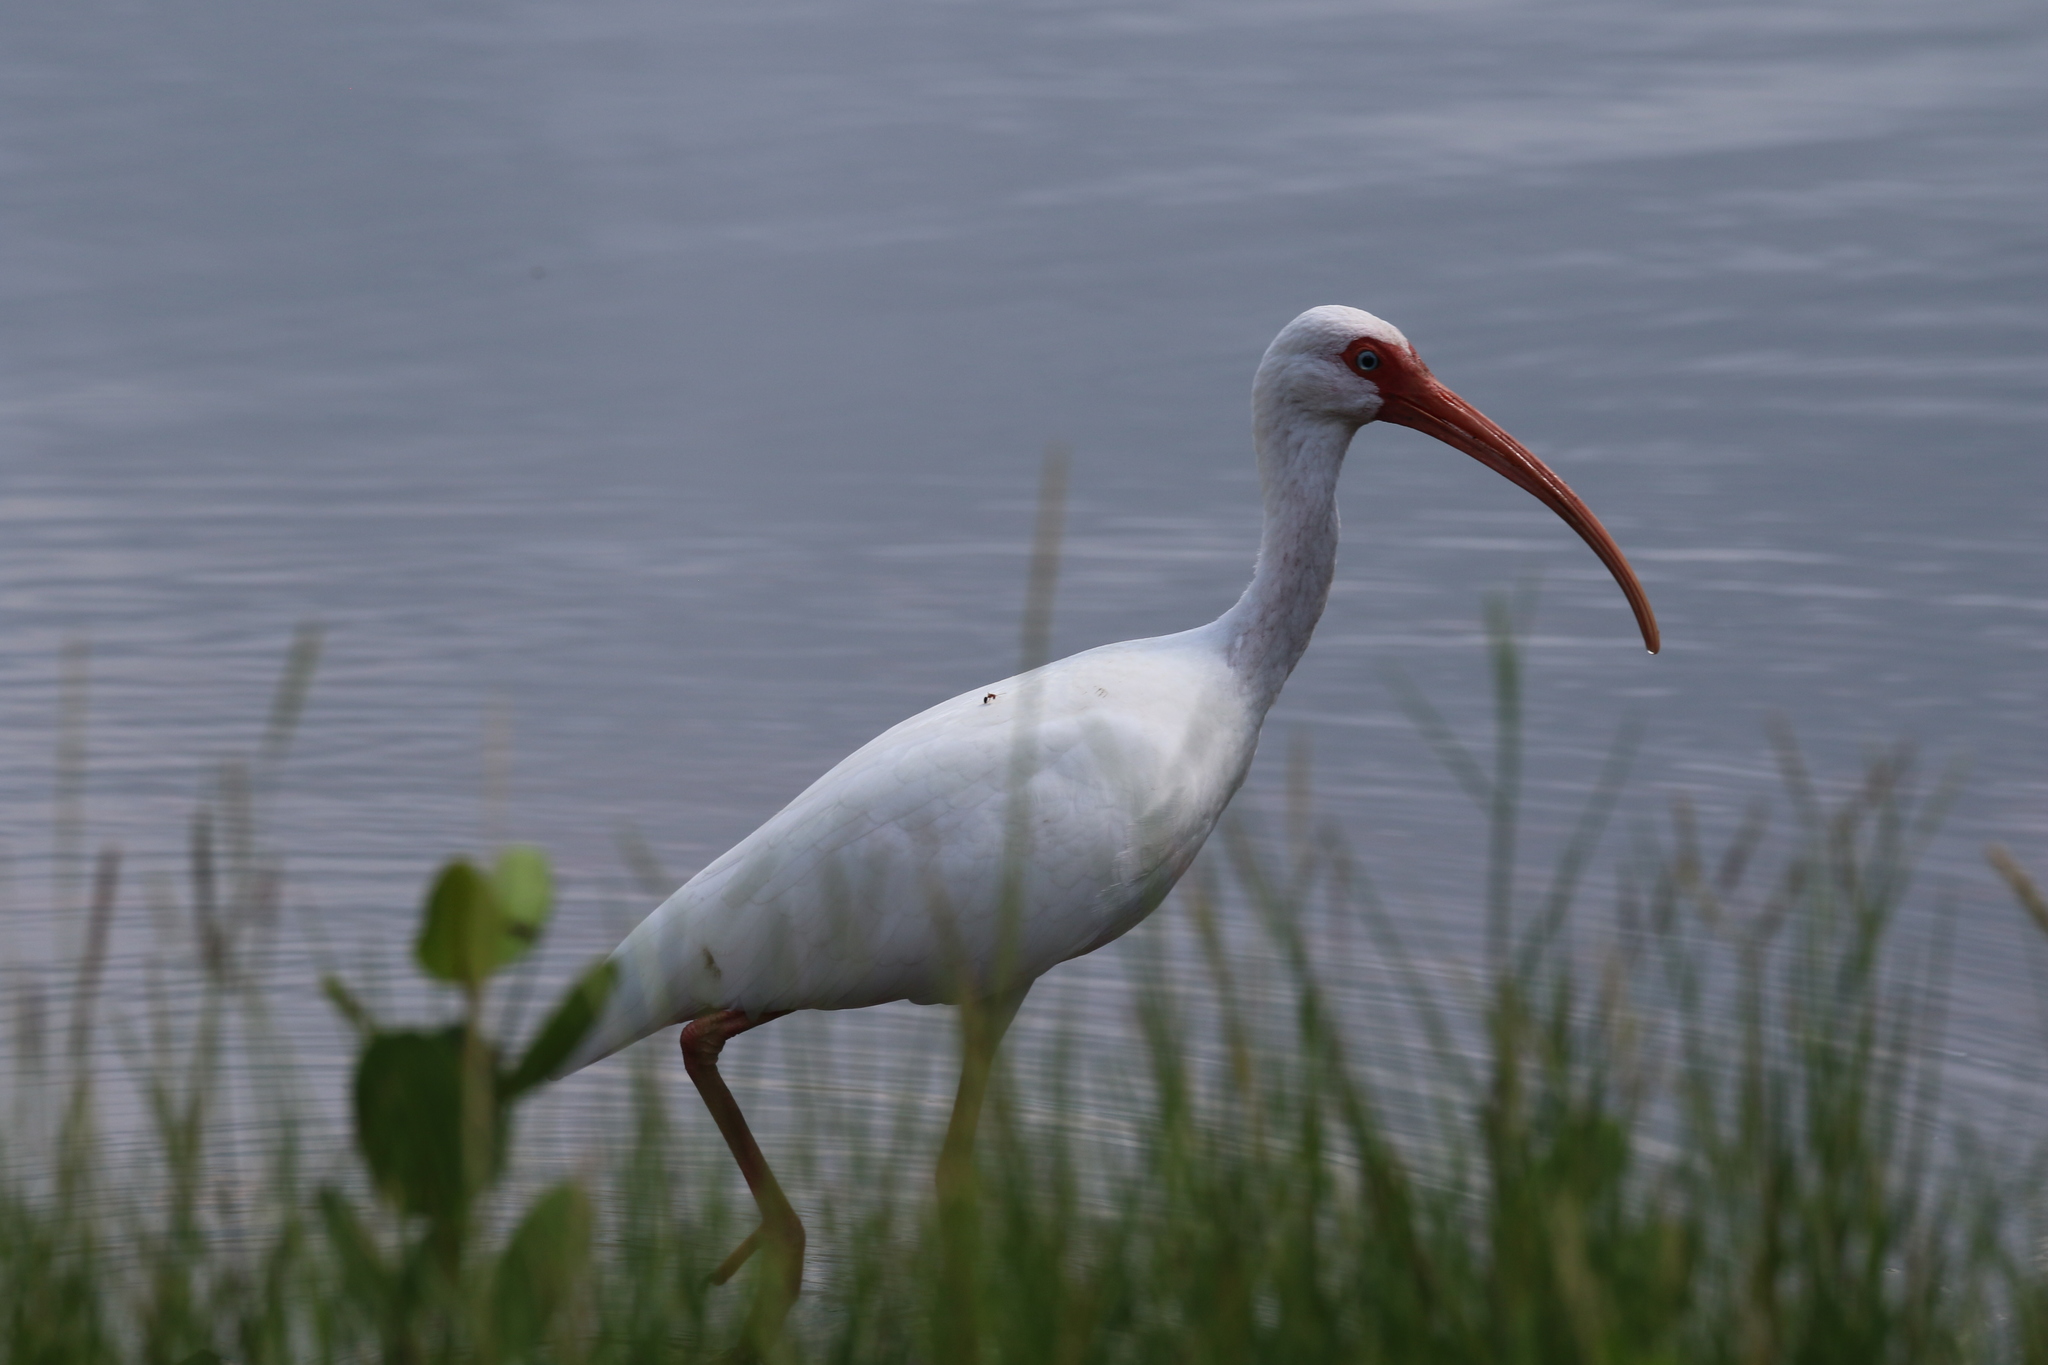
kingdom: Animalia
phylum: Chordata
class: Aves
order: Pelecaniformes
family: Threskiornithidae
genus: Eudocimus
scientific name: Eudocimus albus
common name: White ibis
